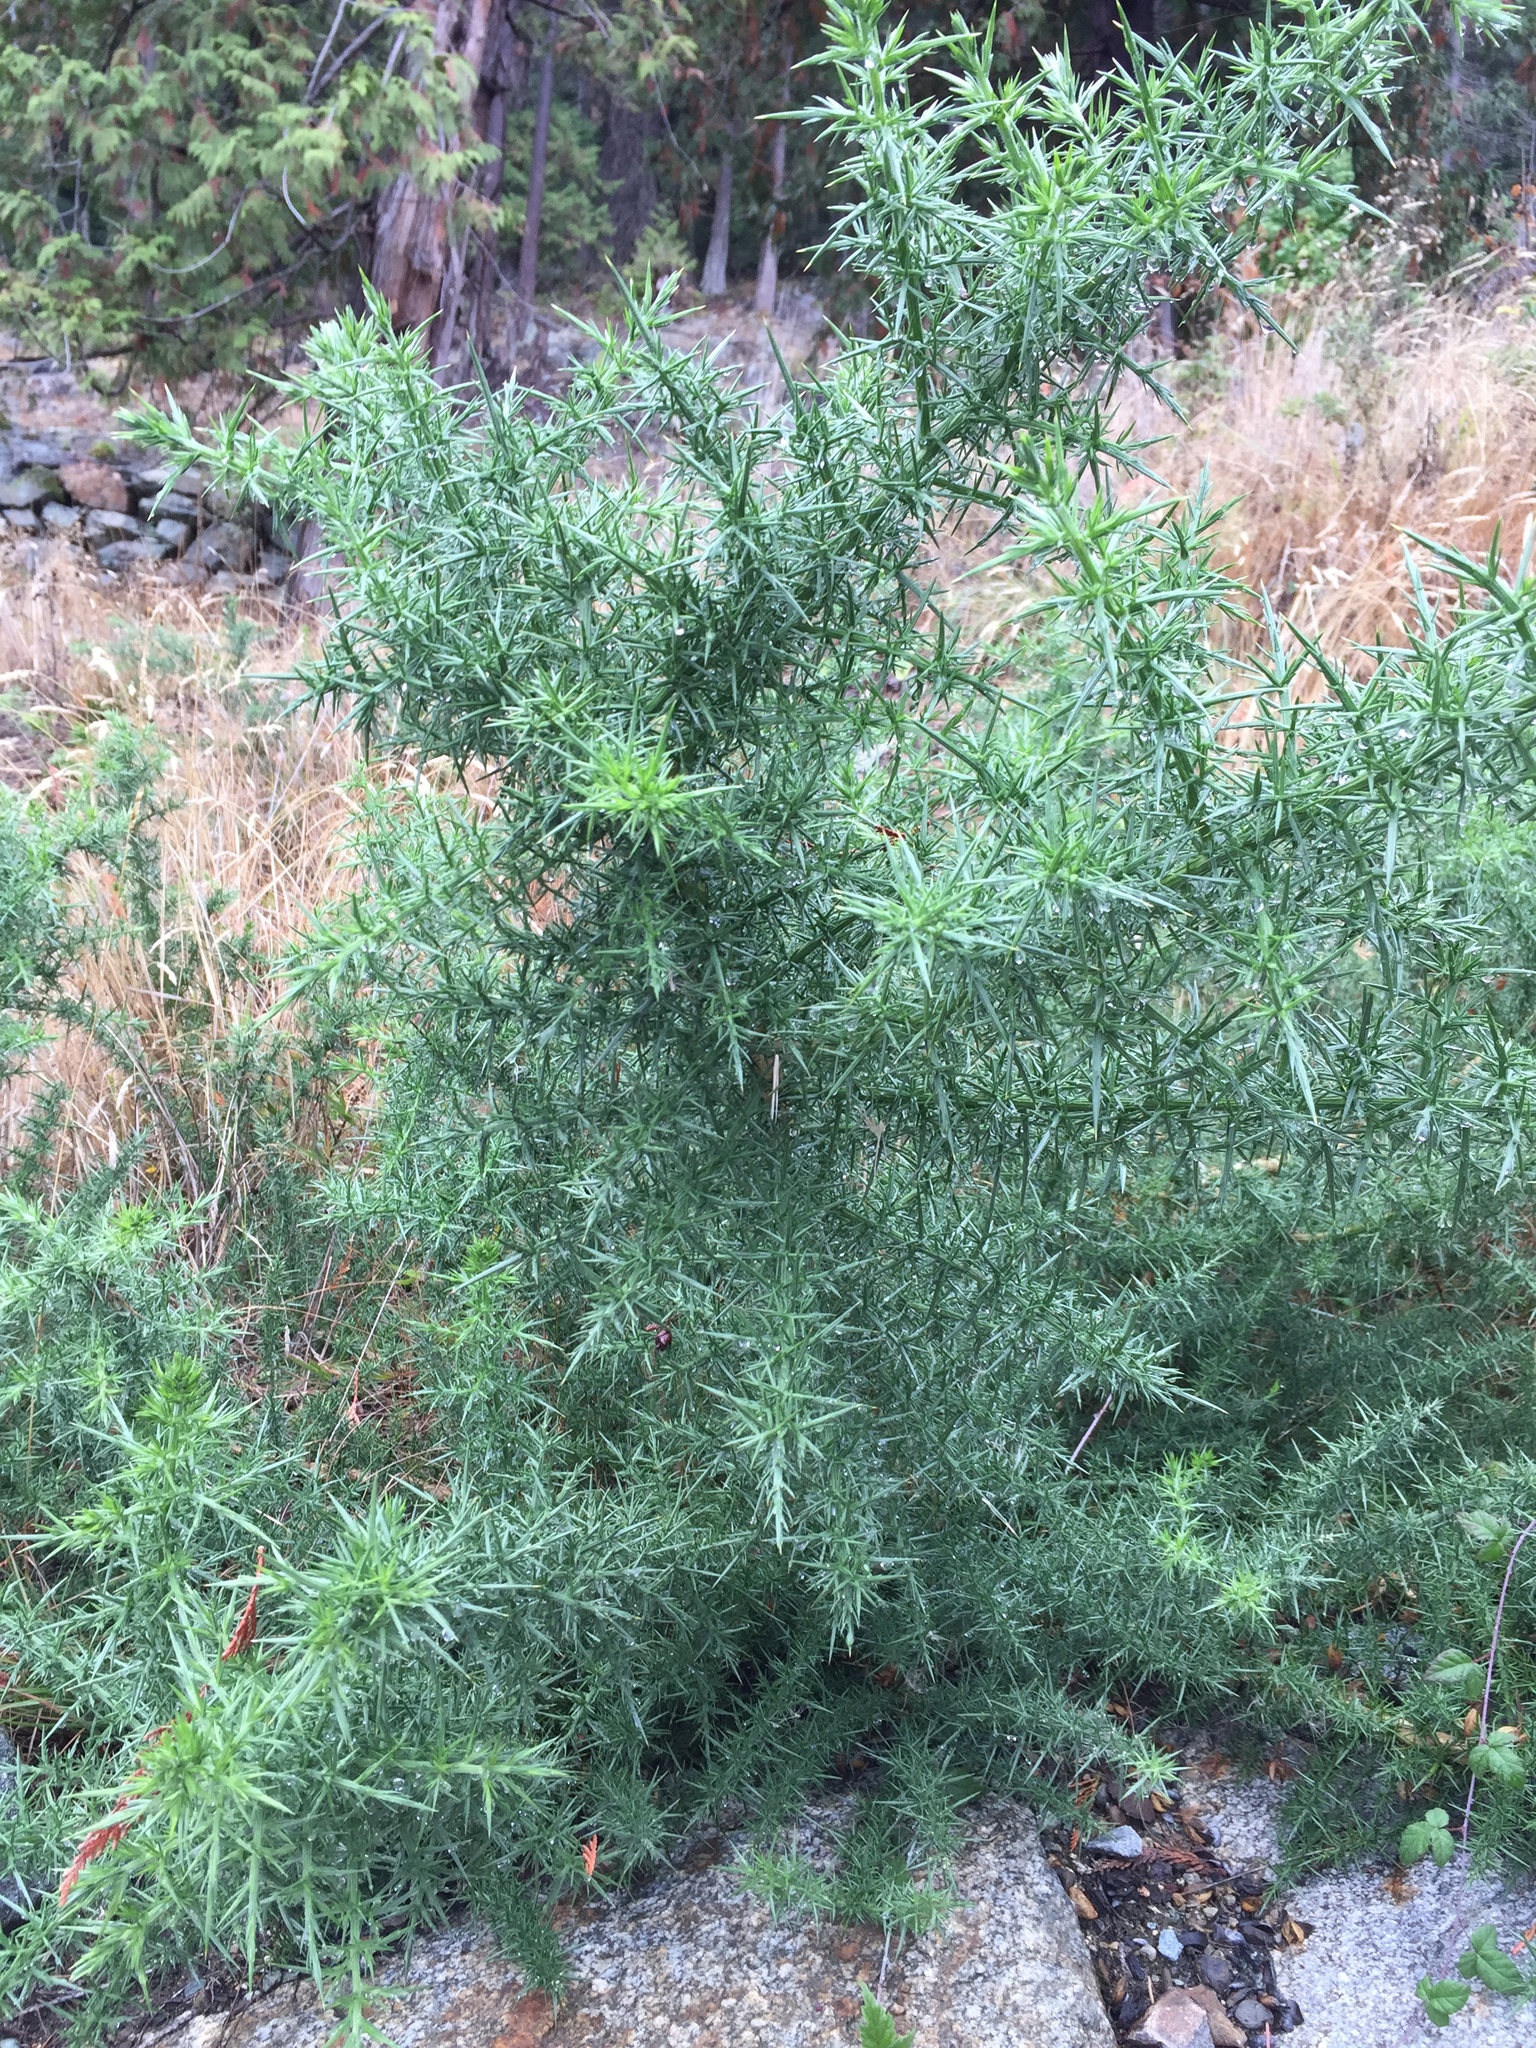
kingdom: Plantae
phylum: Tracheophyta
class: Magnoliopsida
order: Fabales
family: Fabaceae
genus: Ulex
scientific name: Ulex europaeus
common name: Common gorse
